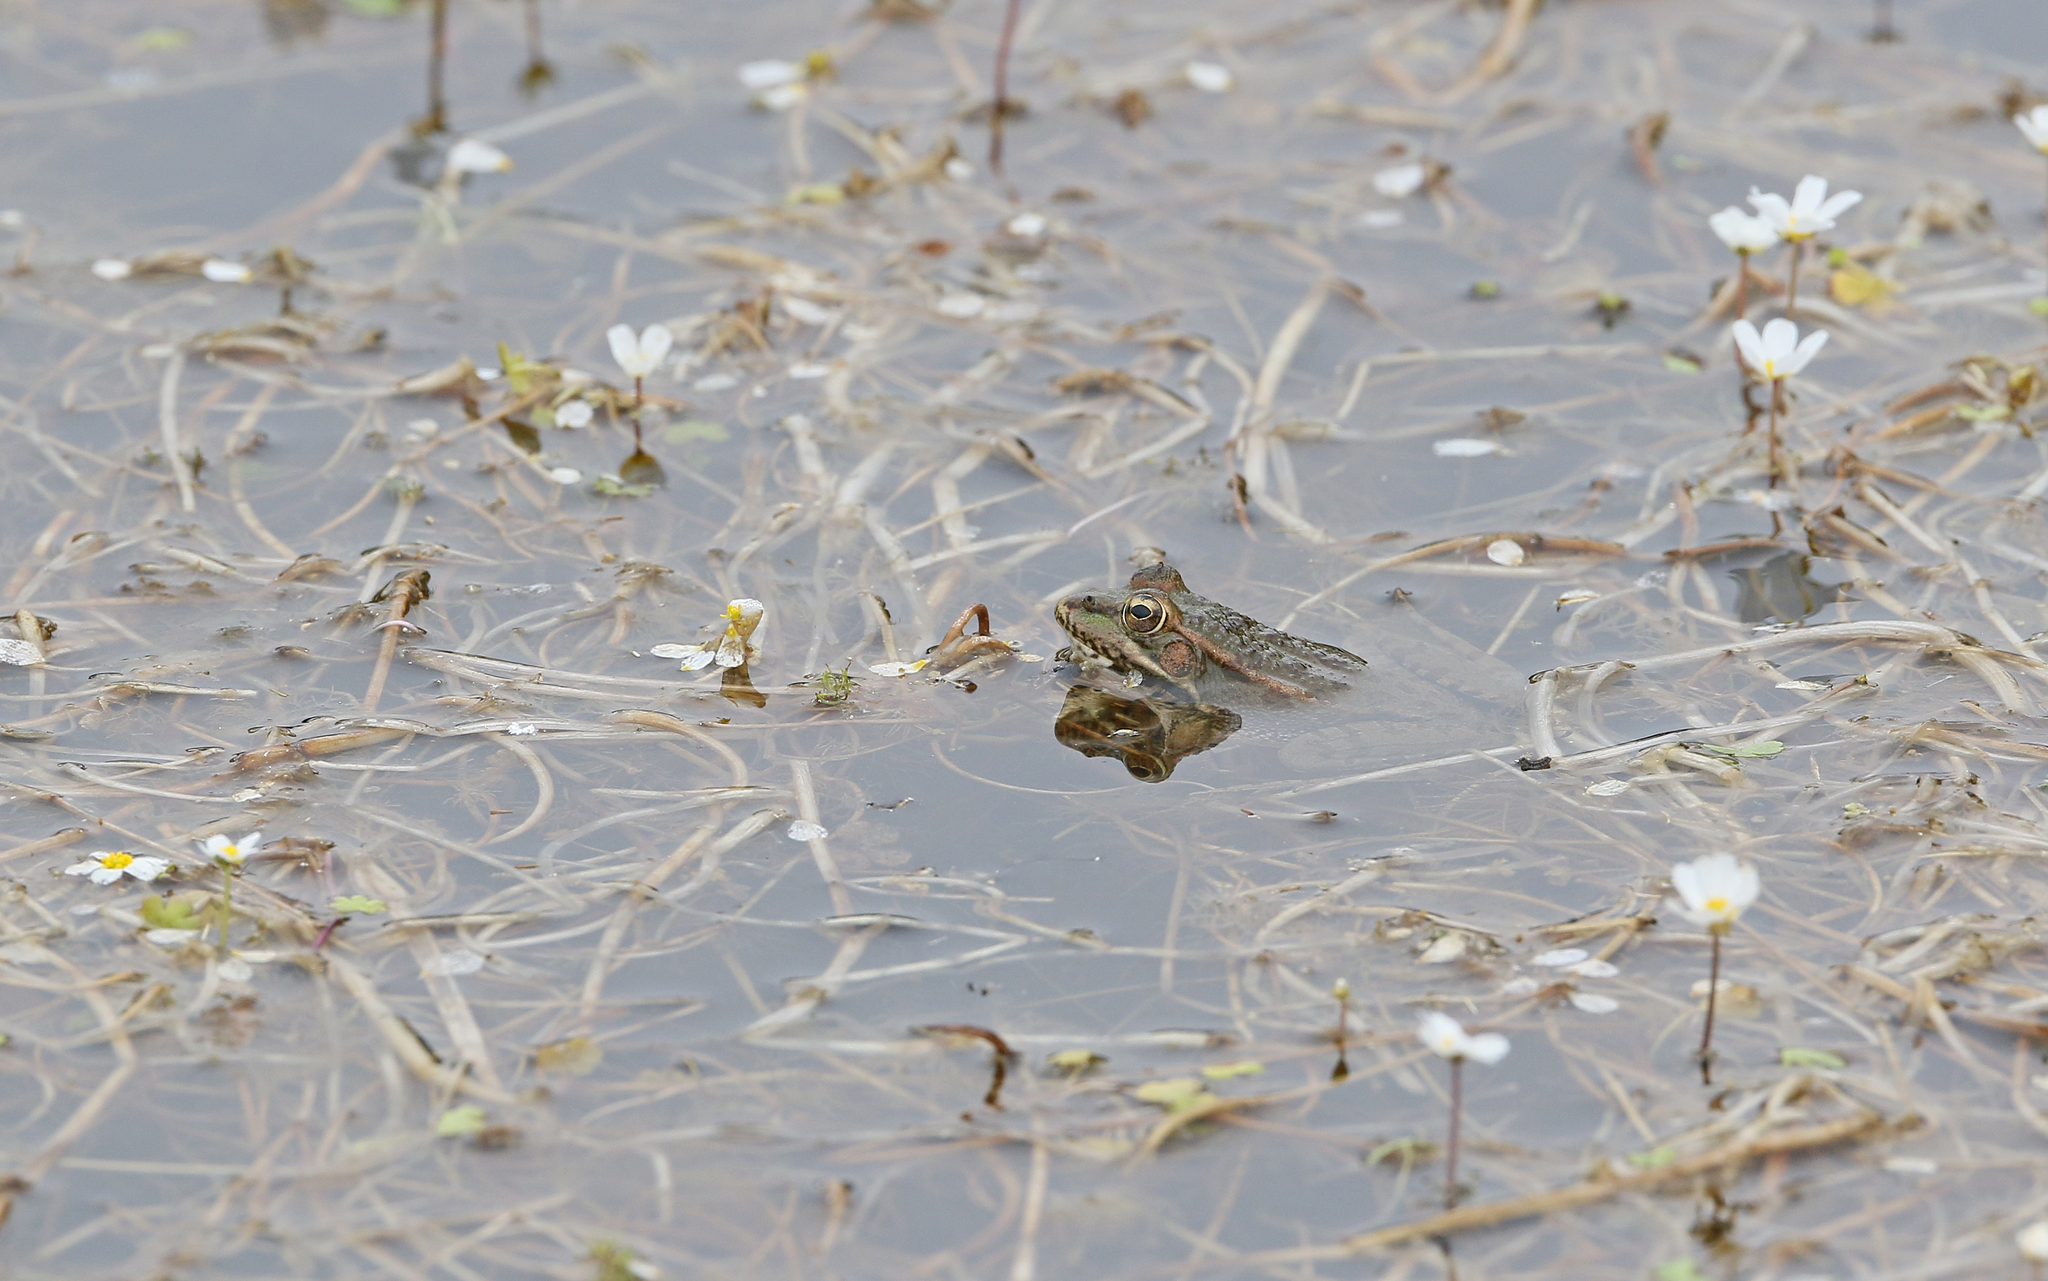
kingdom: Animalia
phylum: Chordata
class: Amphibia
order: Anura
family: Ranidae
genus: Pelophylax
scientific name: Pelophylax perezi
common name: Perez's frog
